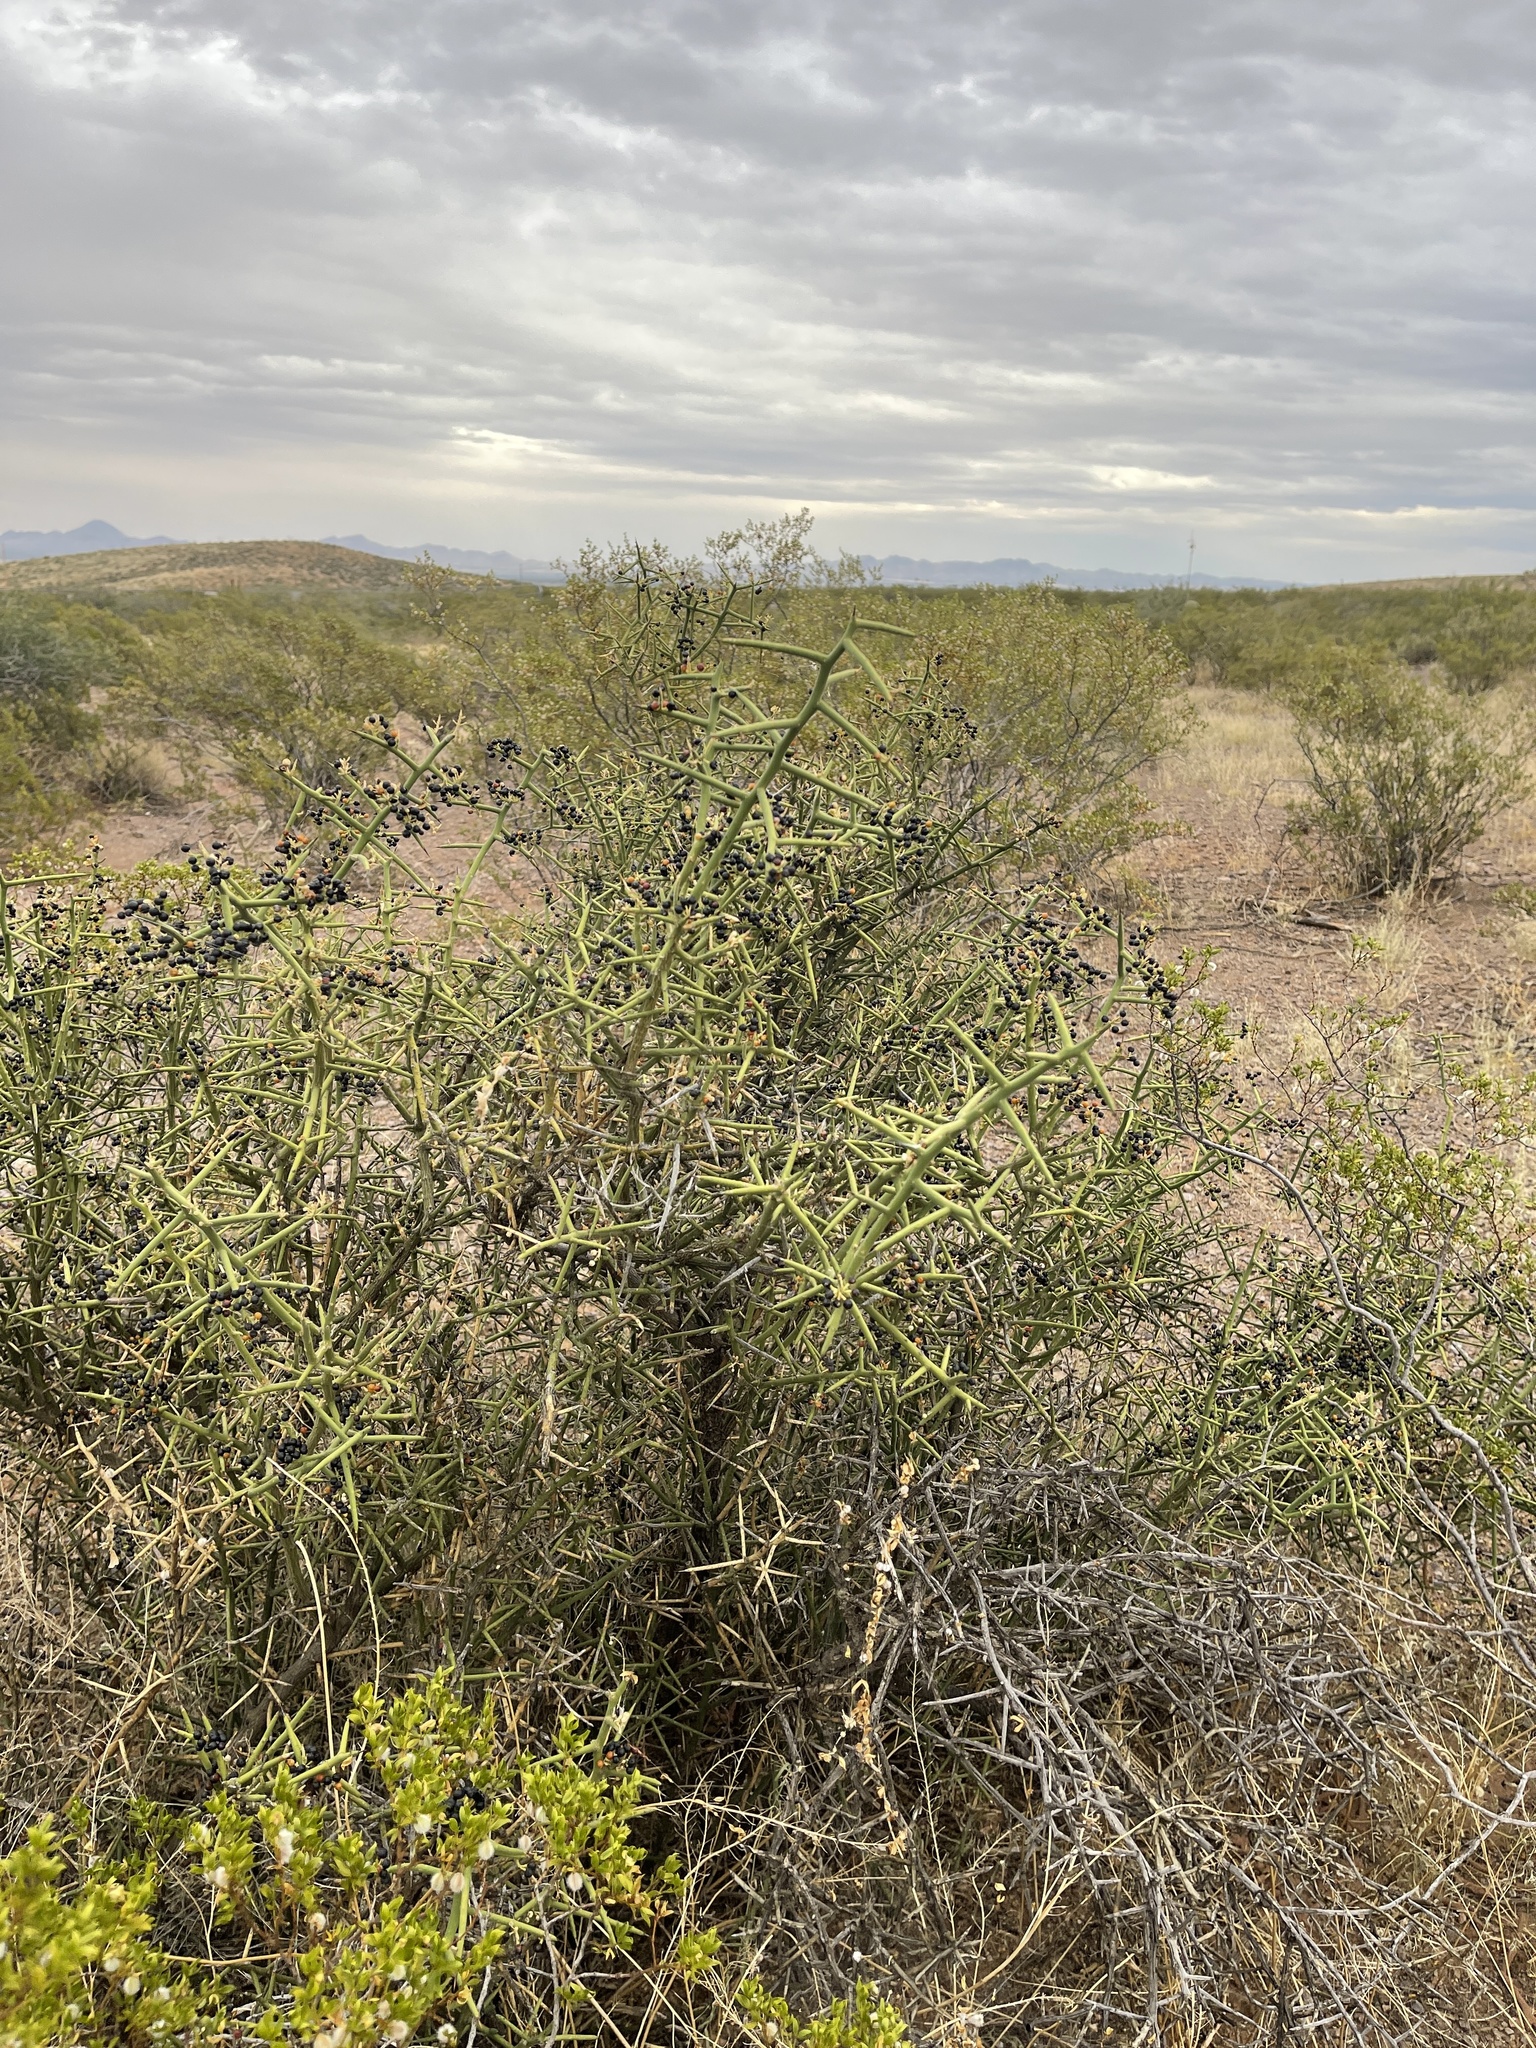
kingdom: Plantae
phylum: Tracheophyta
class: Magnoliopsida
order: Brassicales
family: Koeberliniaceae
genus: Koeberlinia
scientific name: Koeberlinia spinosa
